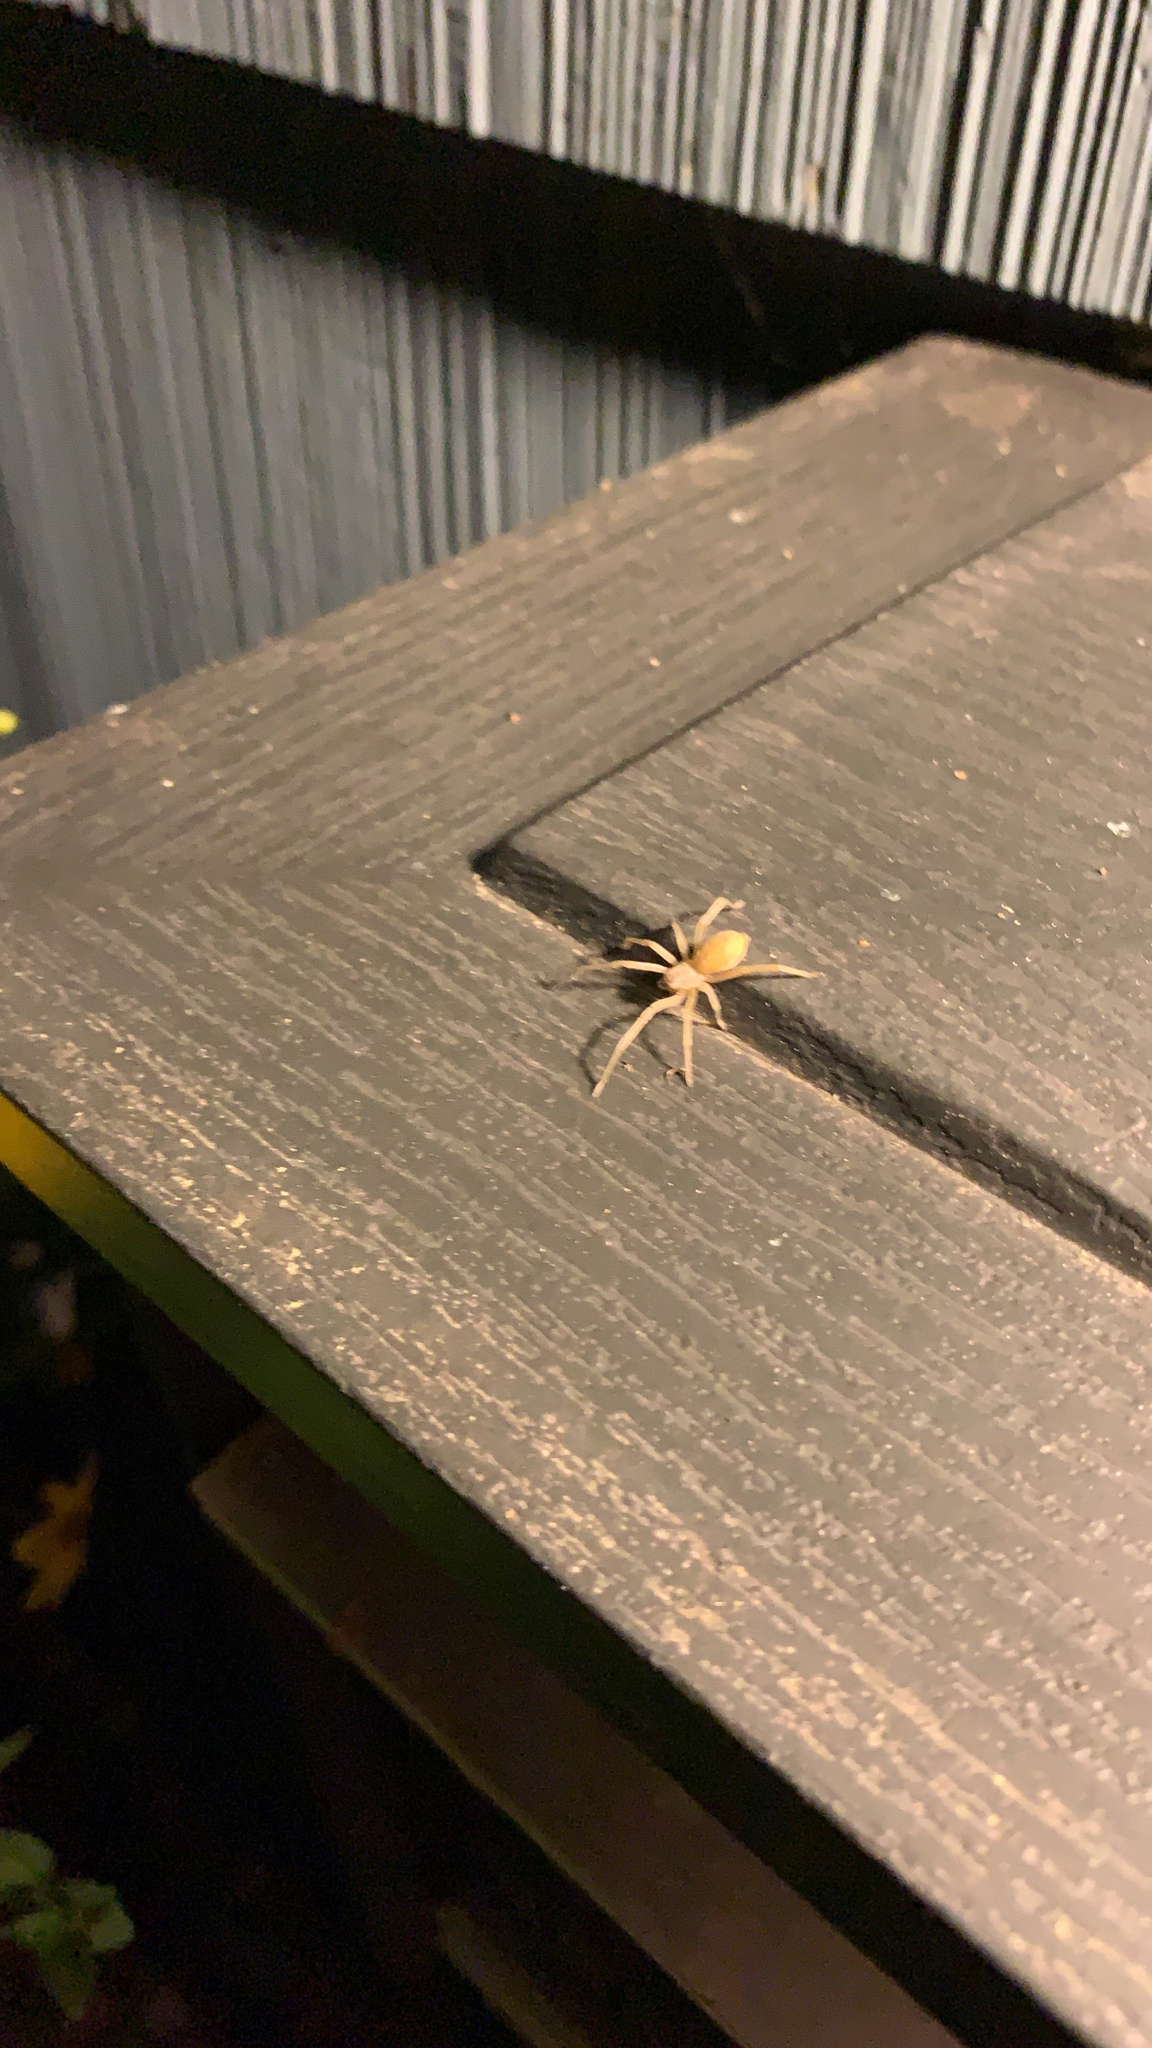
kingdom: Animalia
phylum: Arthropoda
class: Arachnida
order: Araneae
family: Cheiracanthiidae
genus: Cheiracanthium
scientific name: Cheiracanthium mildei
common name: Northern yellow sac spider
